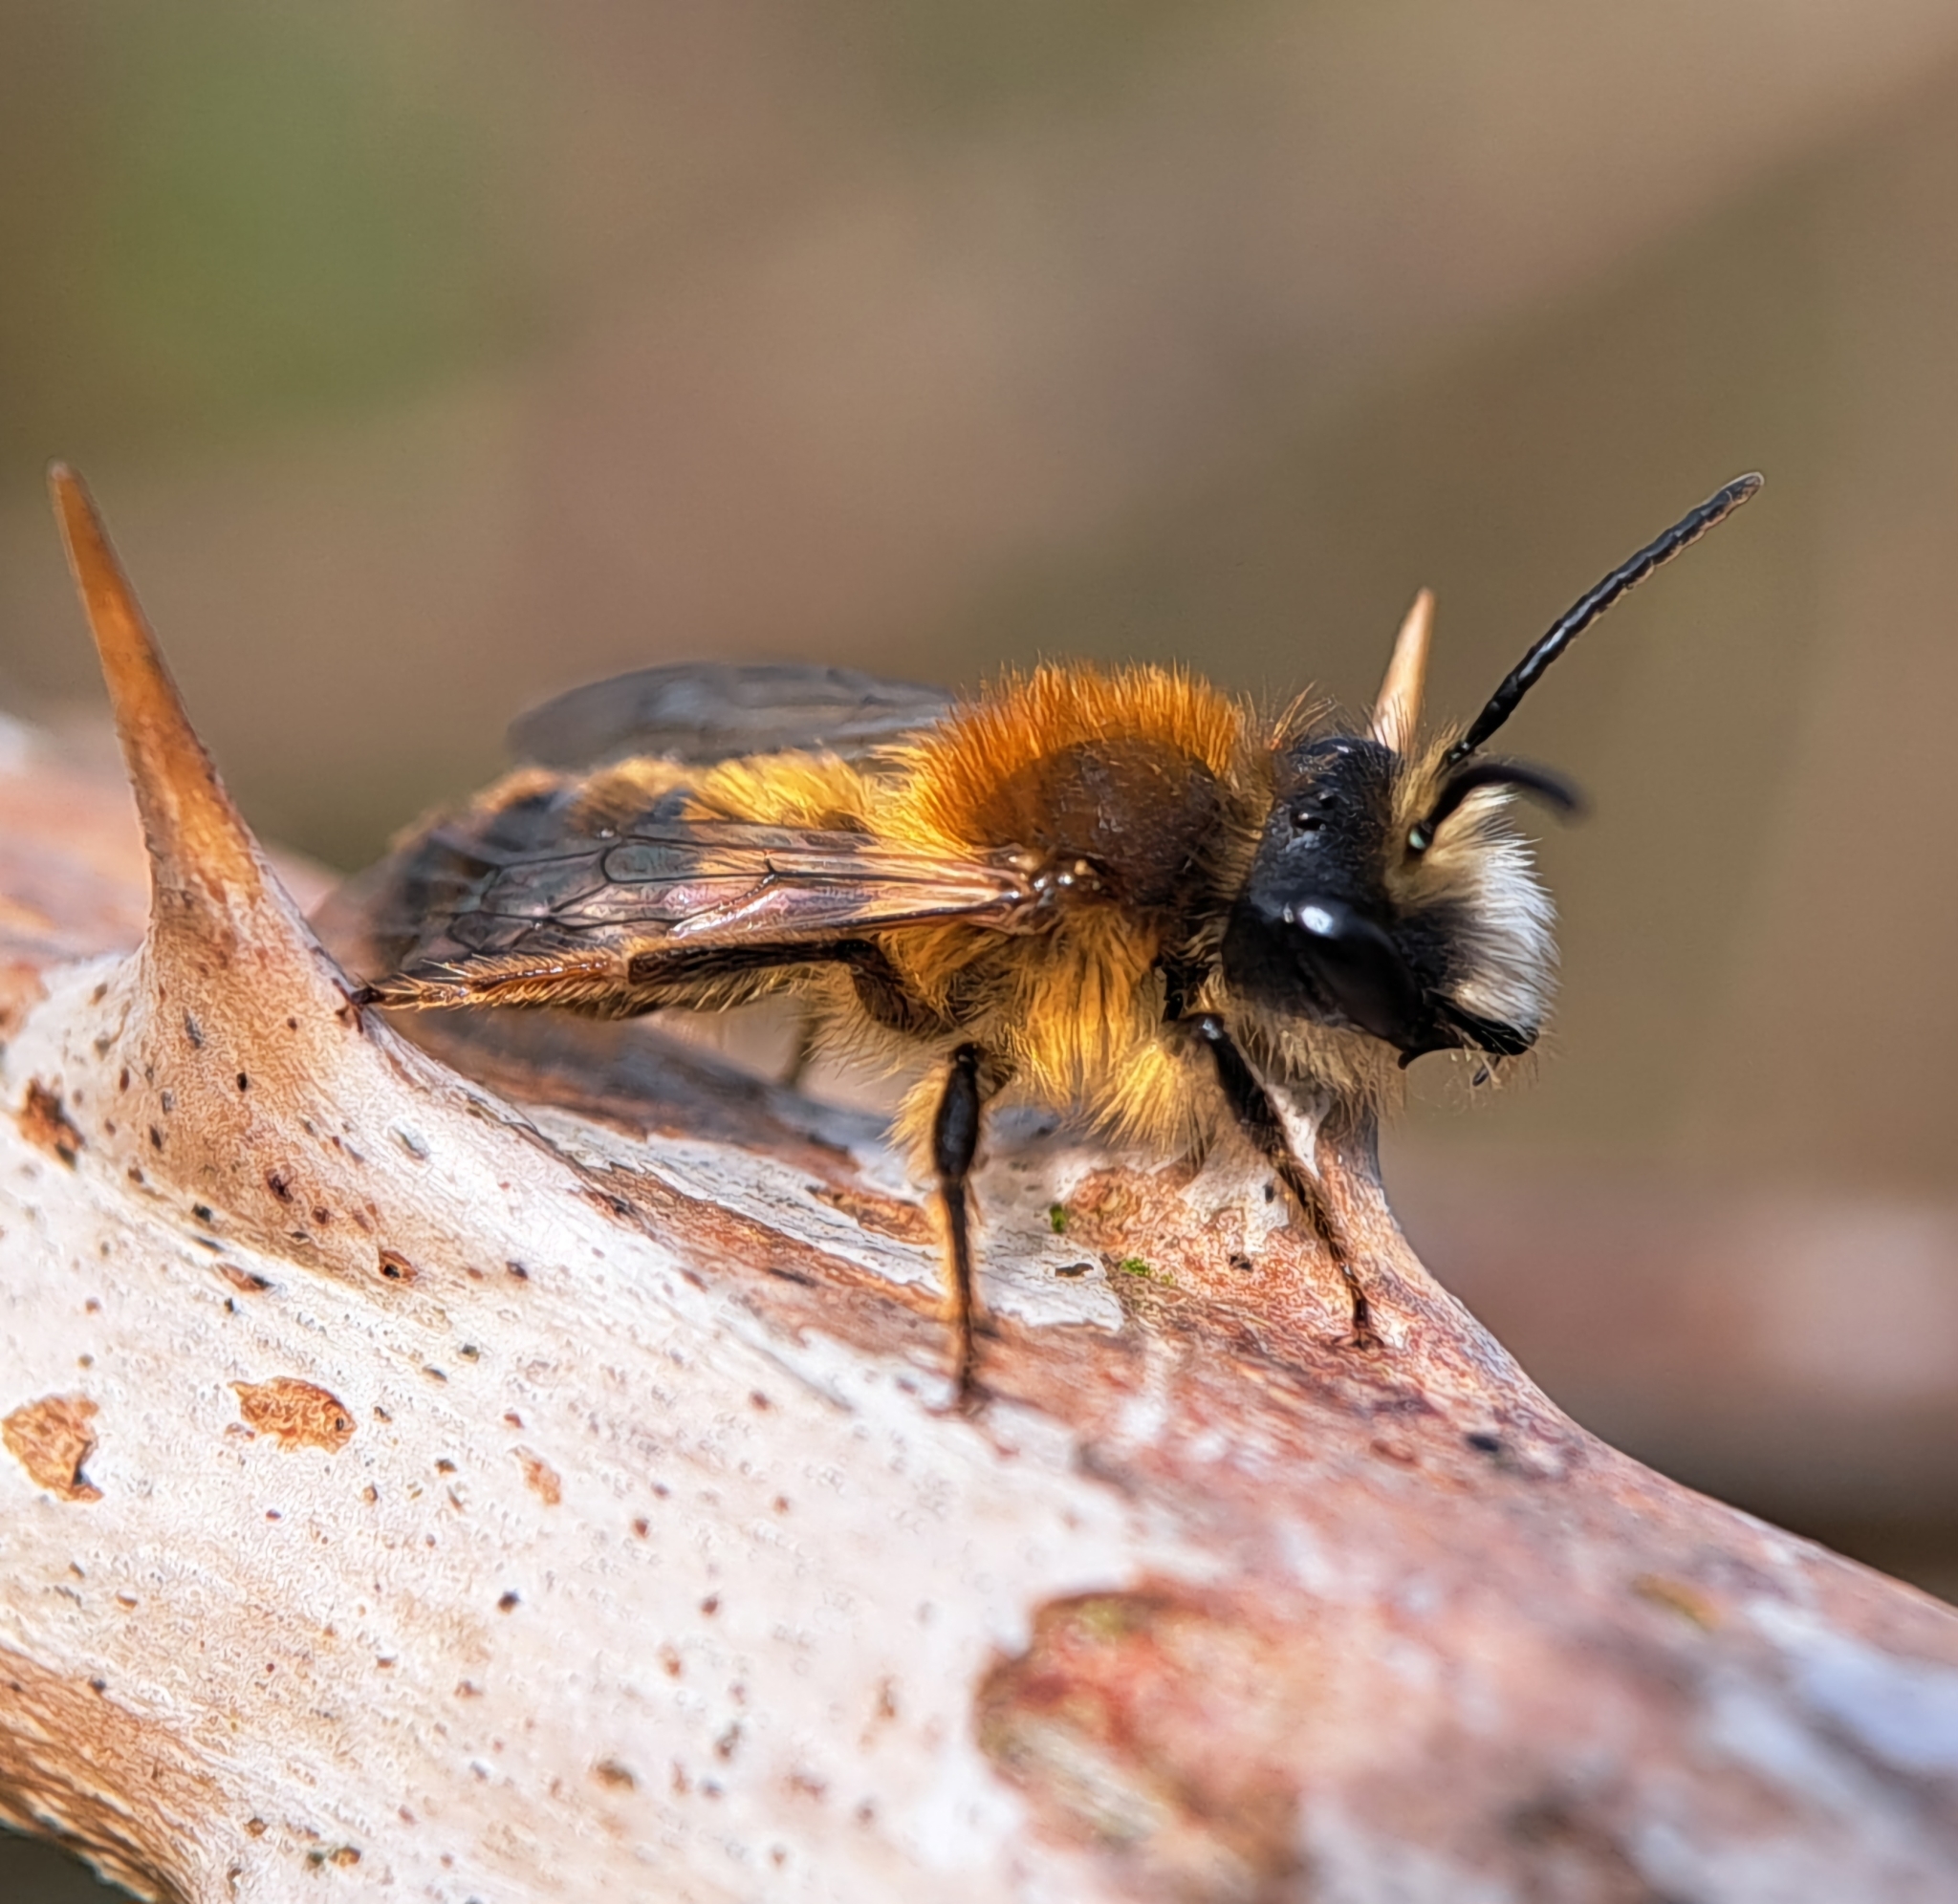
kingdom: Animalia
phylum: Arthropoda
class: Insecta
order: Hymenoptera
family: Andrenidae
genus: Andrena
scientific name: Andrena fulva
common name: Tawny mining bee
